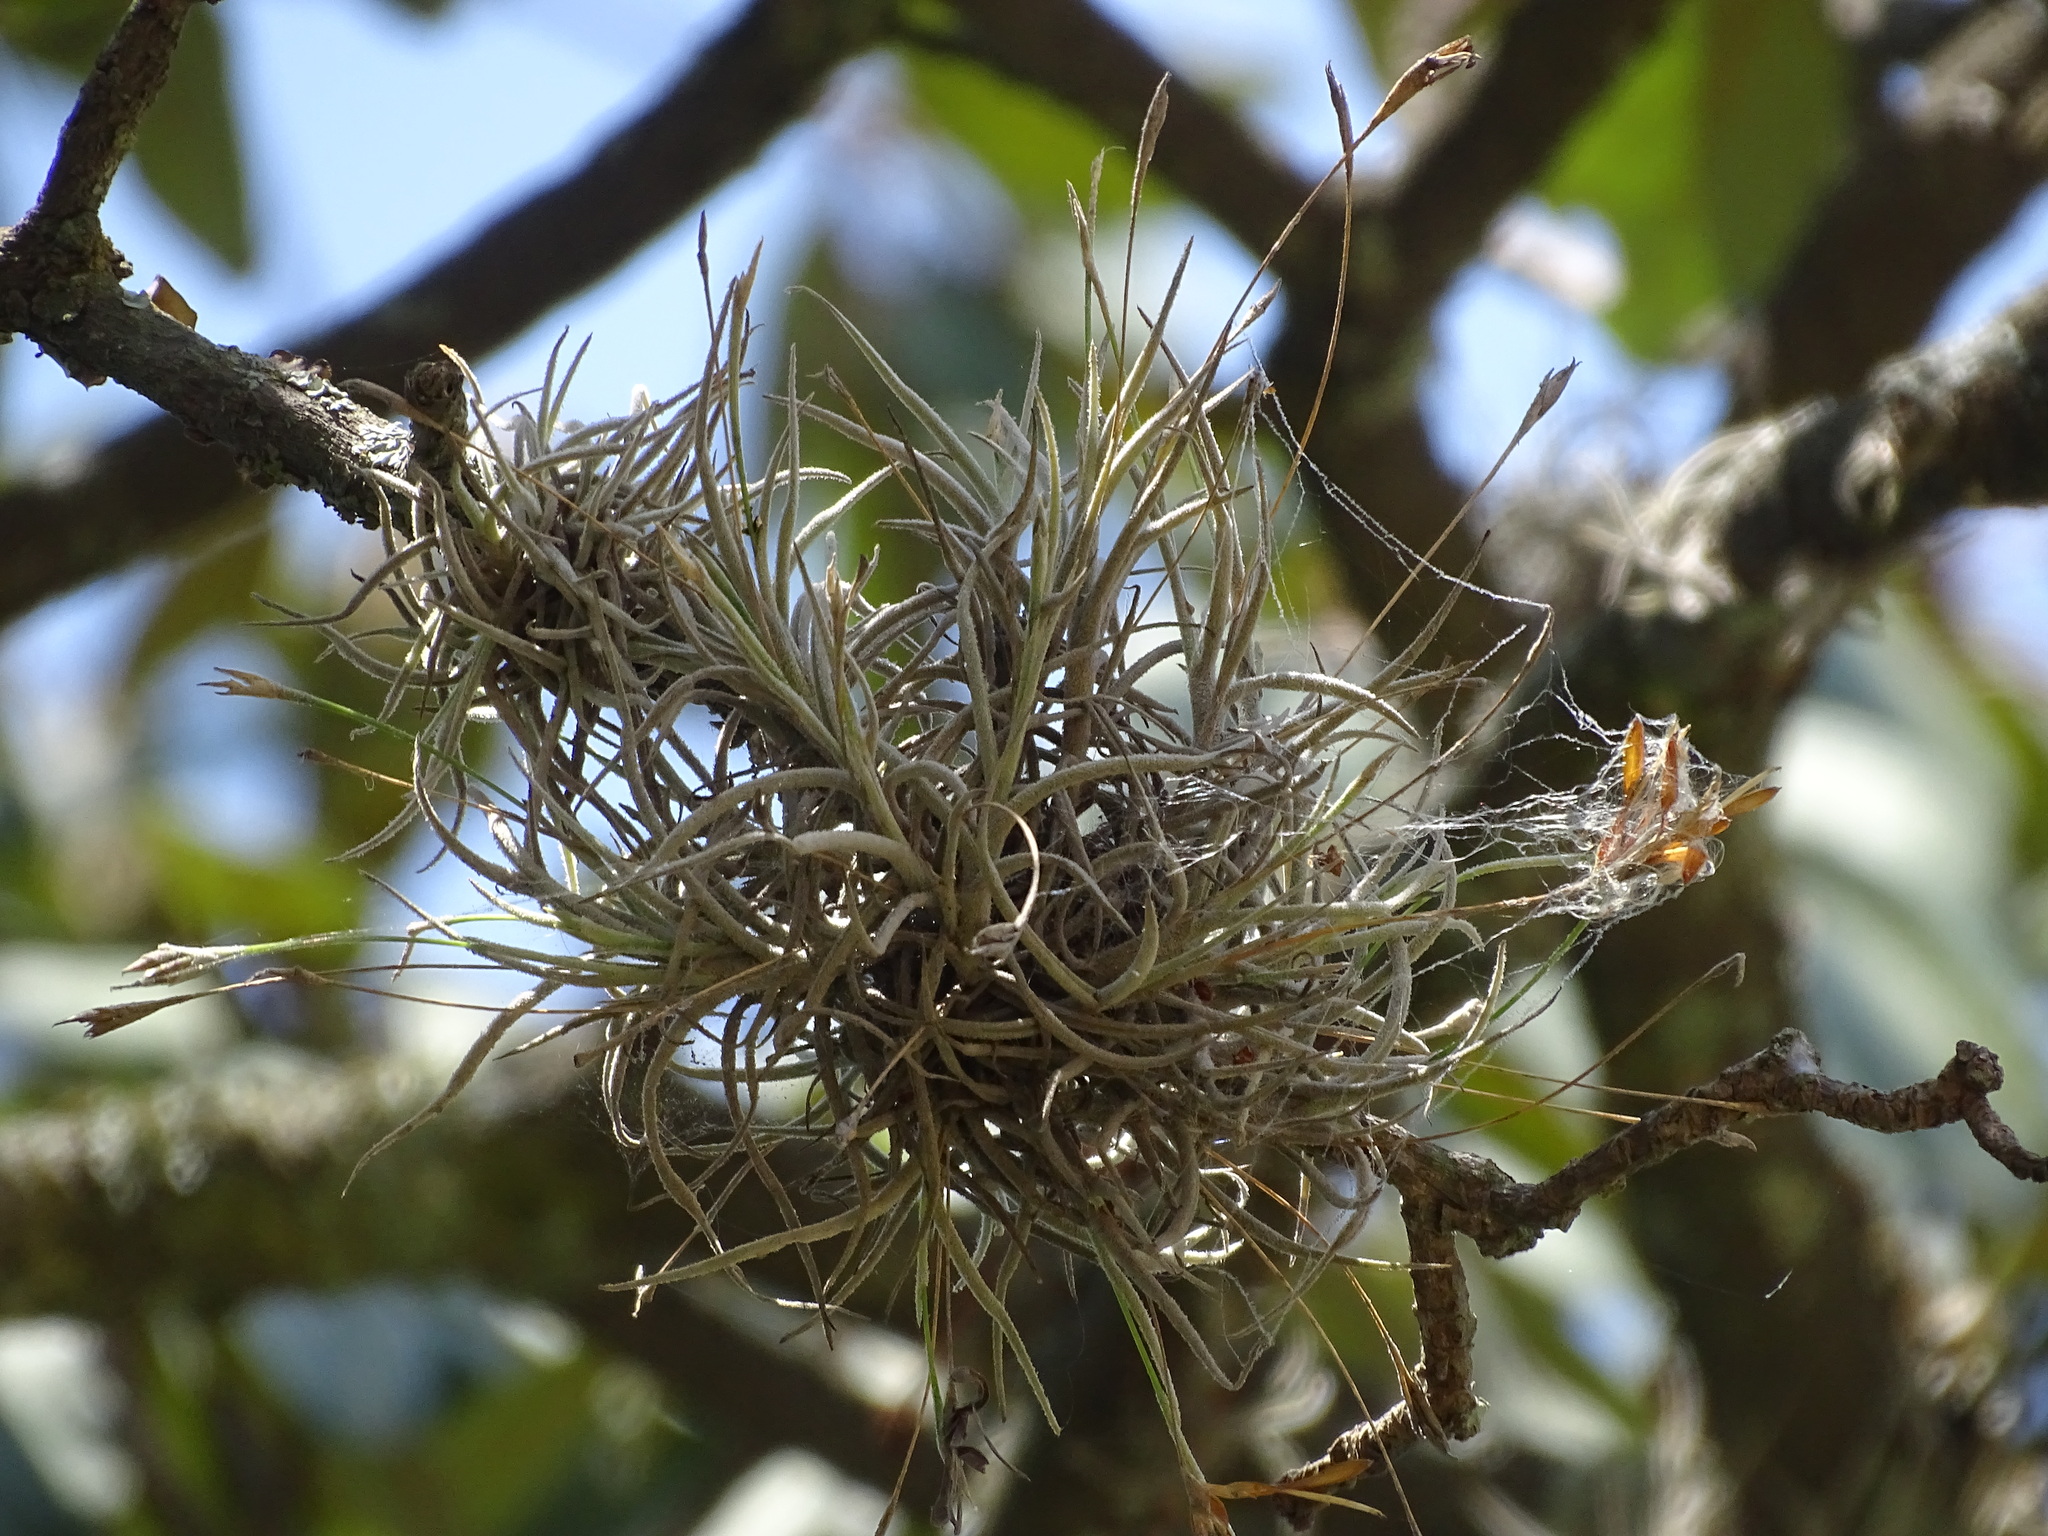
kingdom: Plantae
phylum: Tracheophyta
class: Liliopsida
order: Poales
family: Bromeliaceae
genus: Tillandsia
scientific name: Tillandsia recurvata
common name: Small ballmoss
